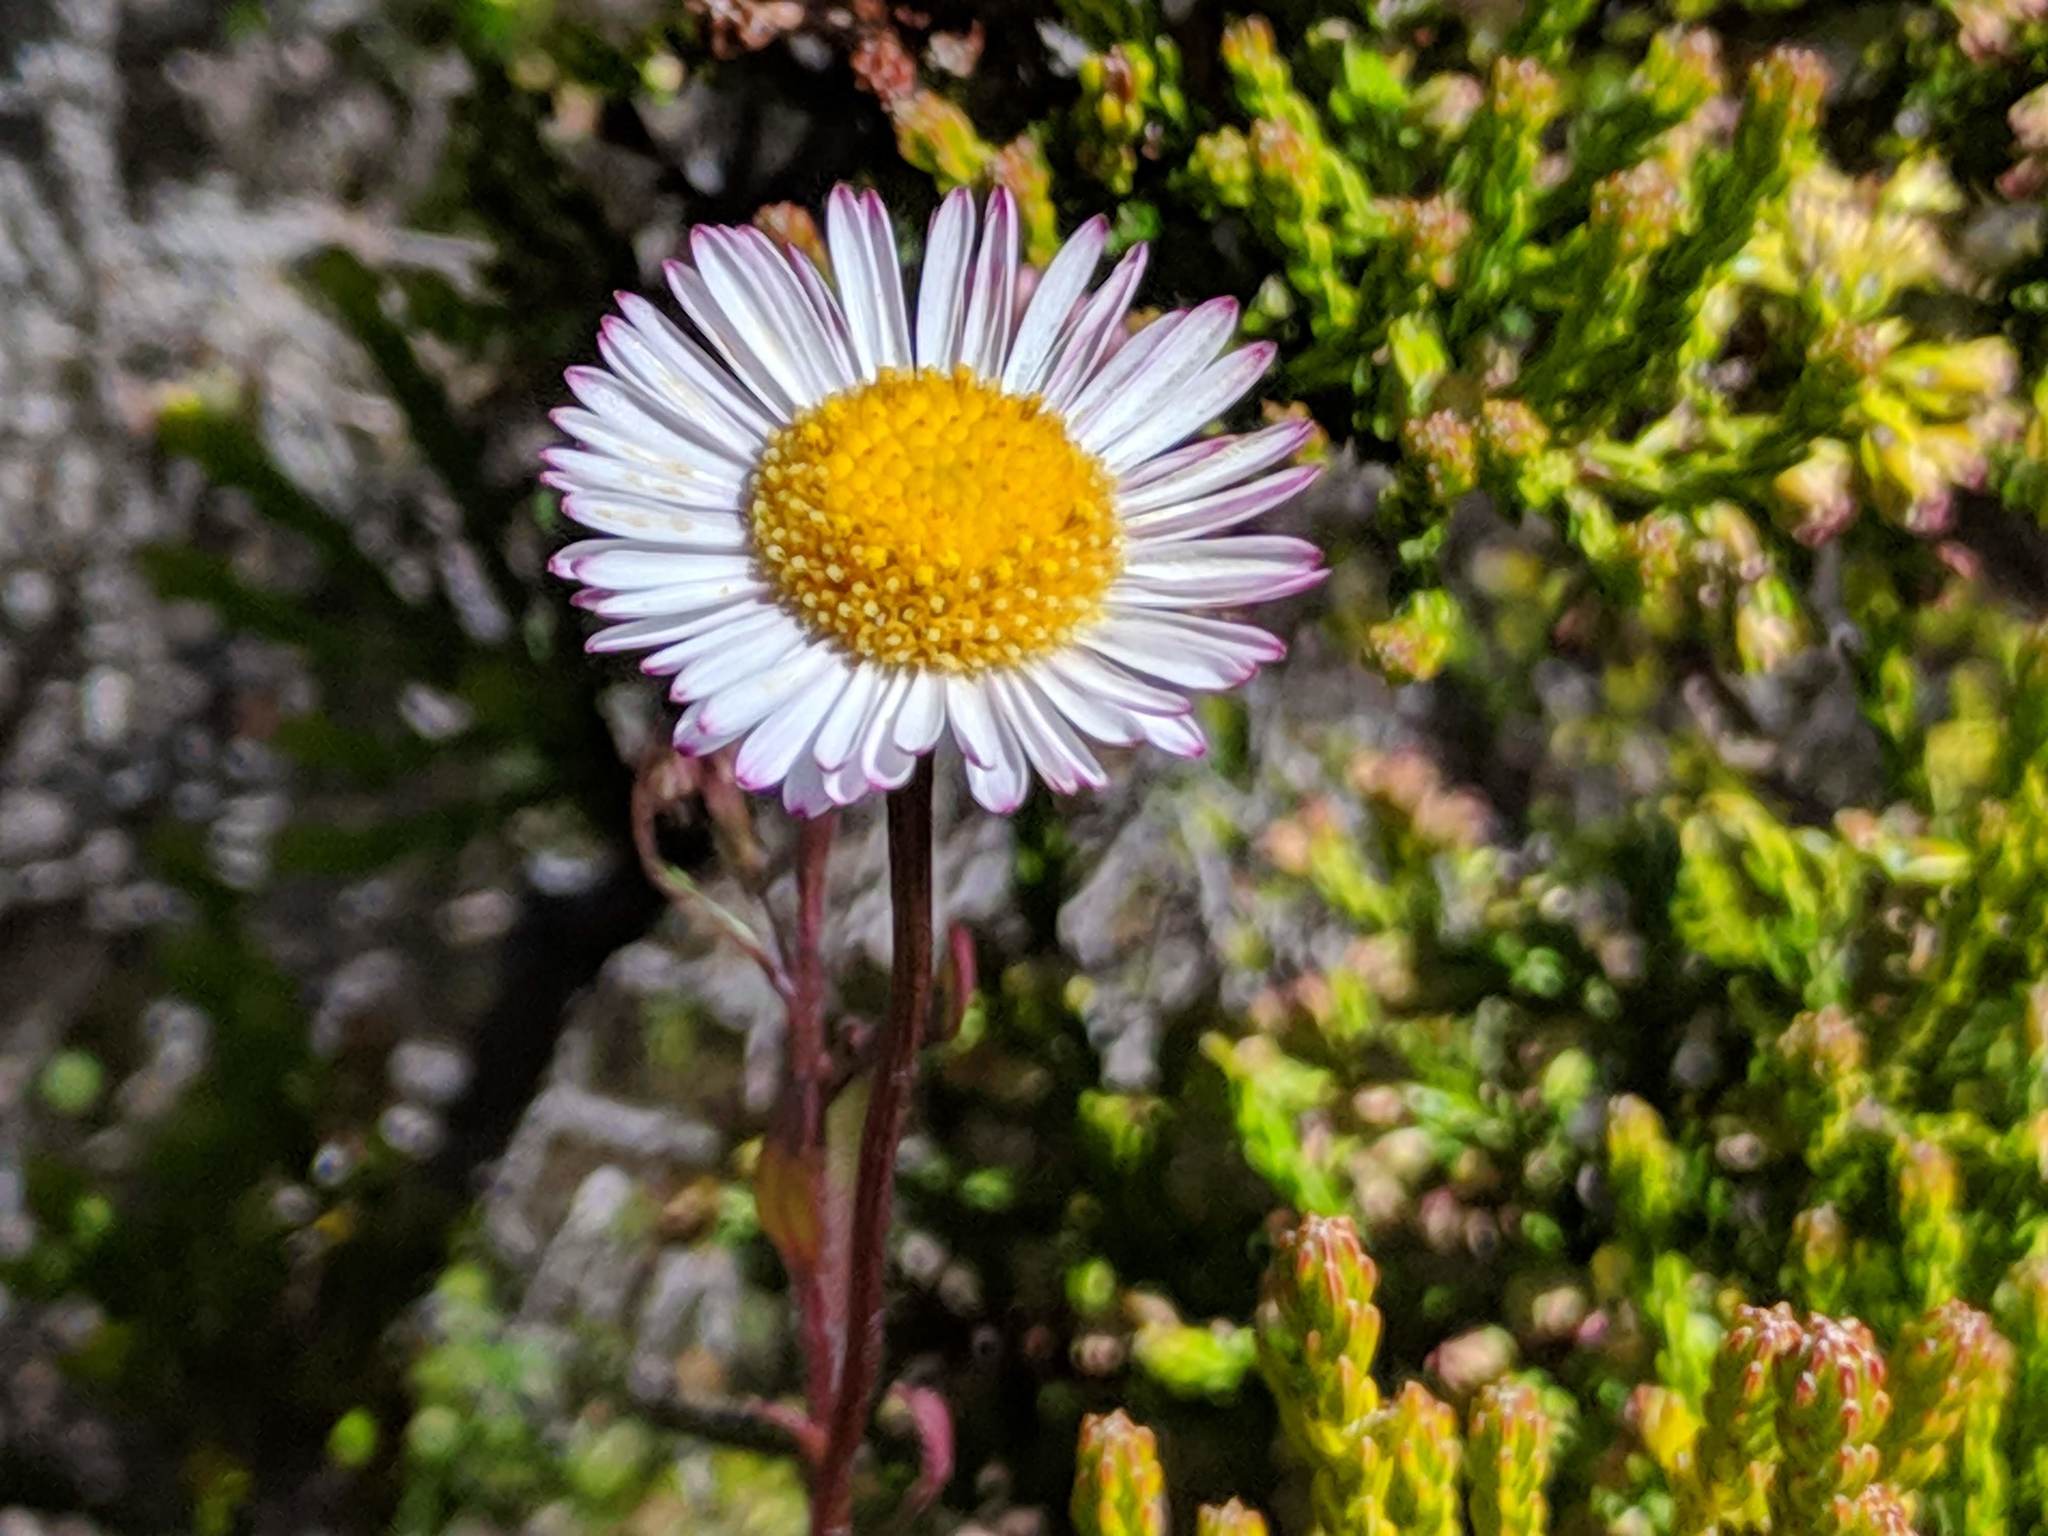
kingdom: Plantae
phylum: Tracheophyta
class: Magnoliopsida
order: Asterales
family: Asteraceae
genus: Erigeron
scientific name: Erigeron karvinskianus
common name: Mexican fleabane
